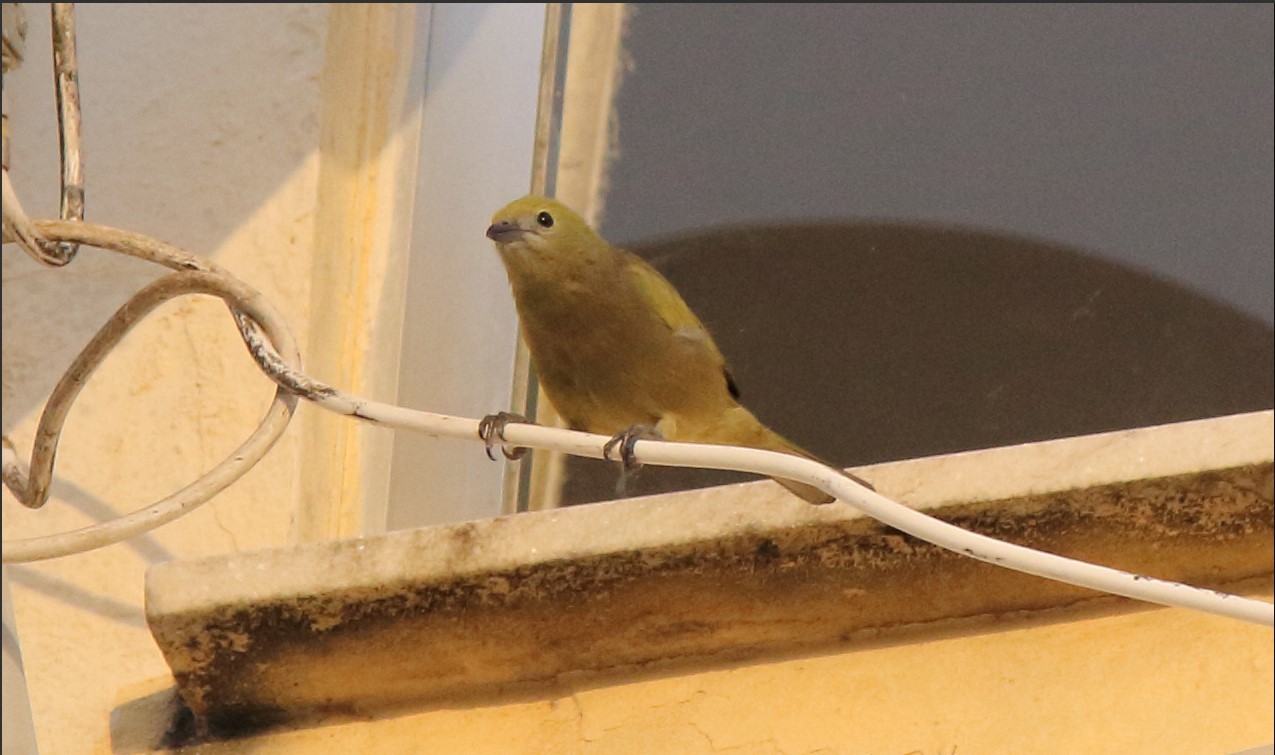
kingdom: Animalia
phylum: Chordata
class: Aves
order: Passeriformes
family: Thraupidae
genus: Thraupis
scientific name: Thraupis palmarum
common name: Palm tanager
